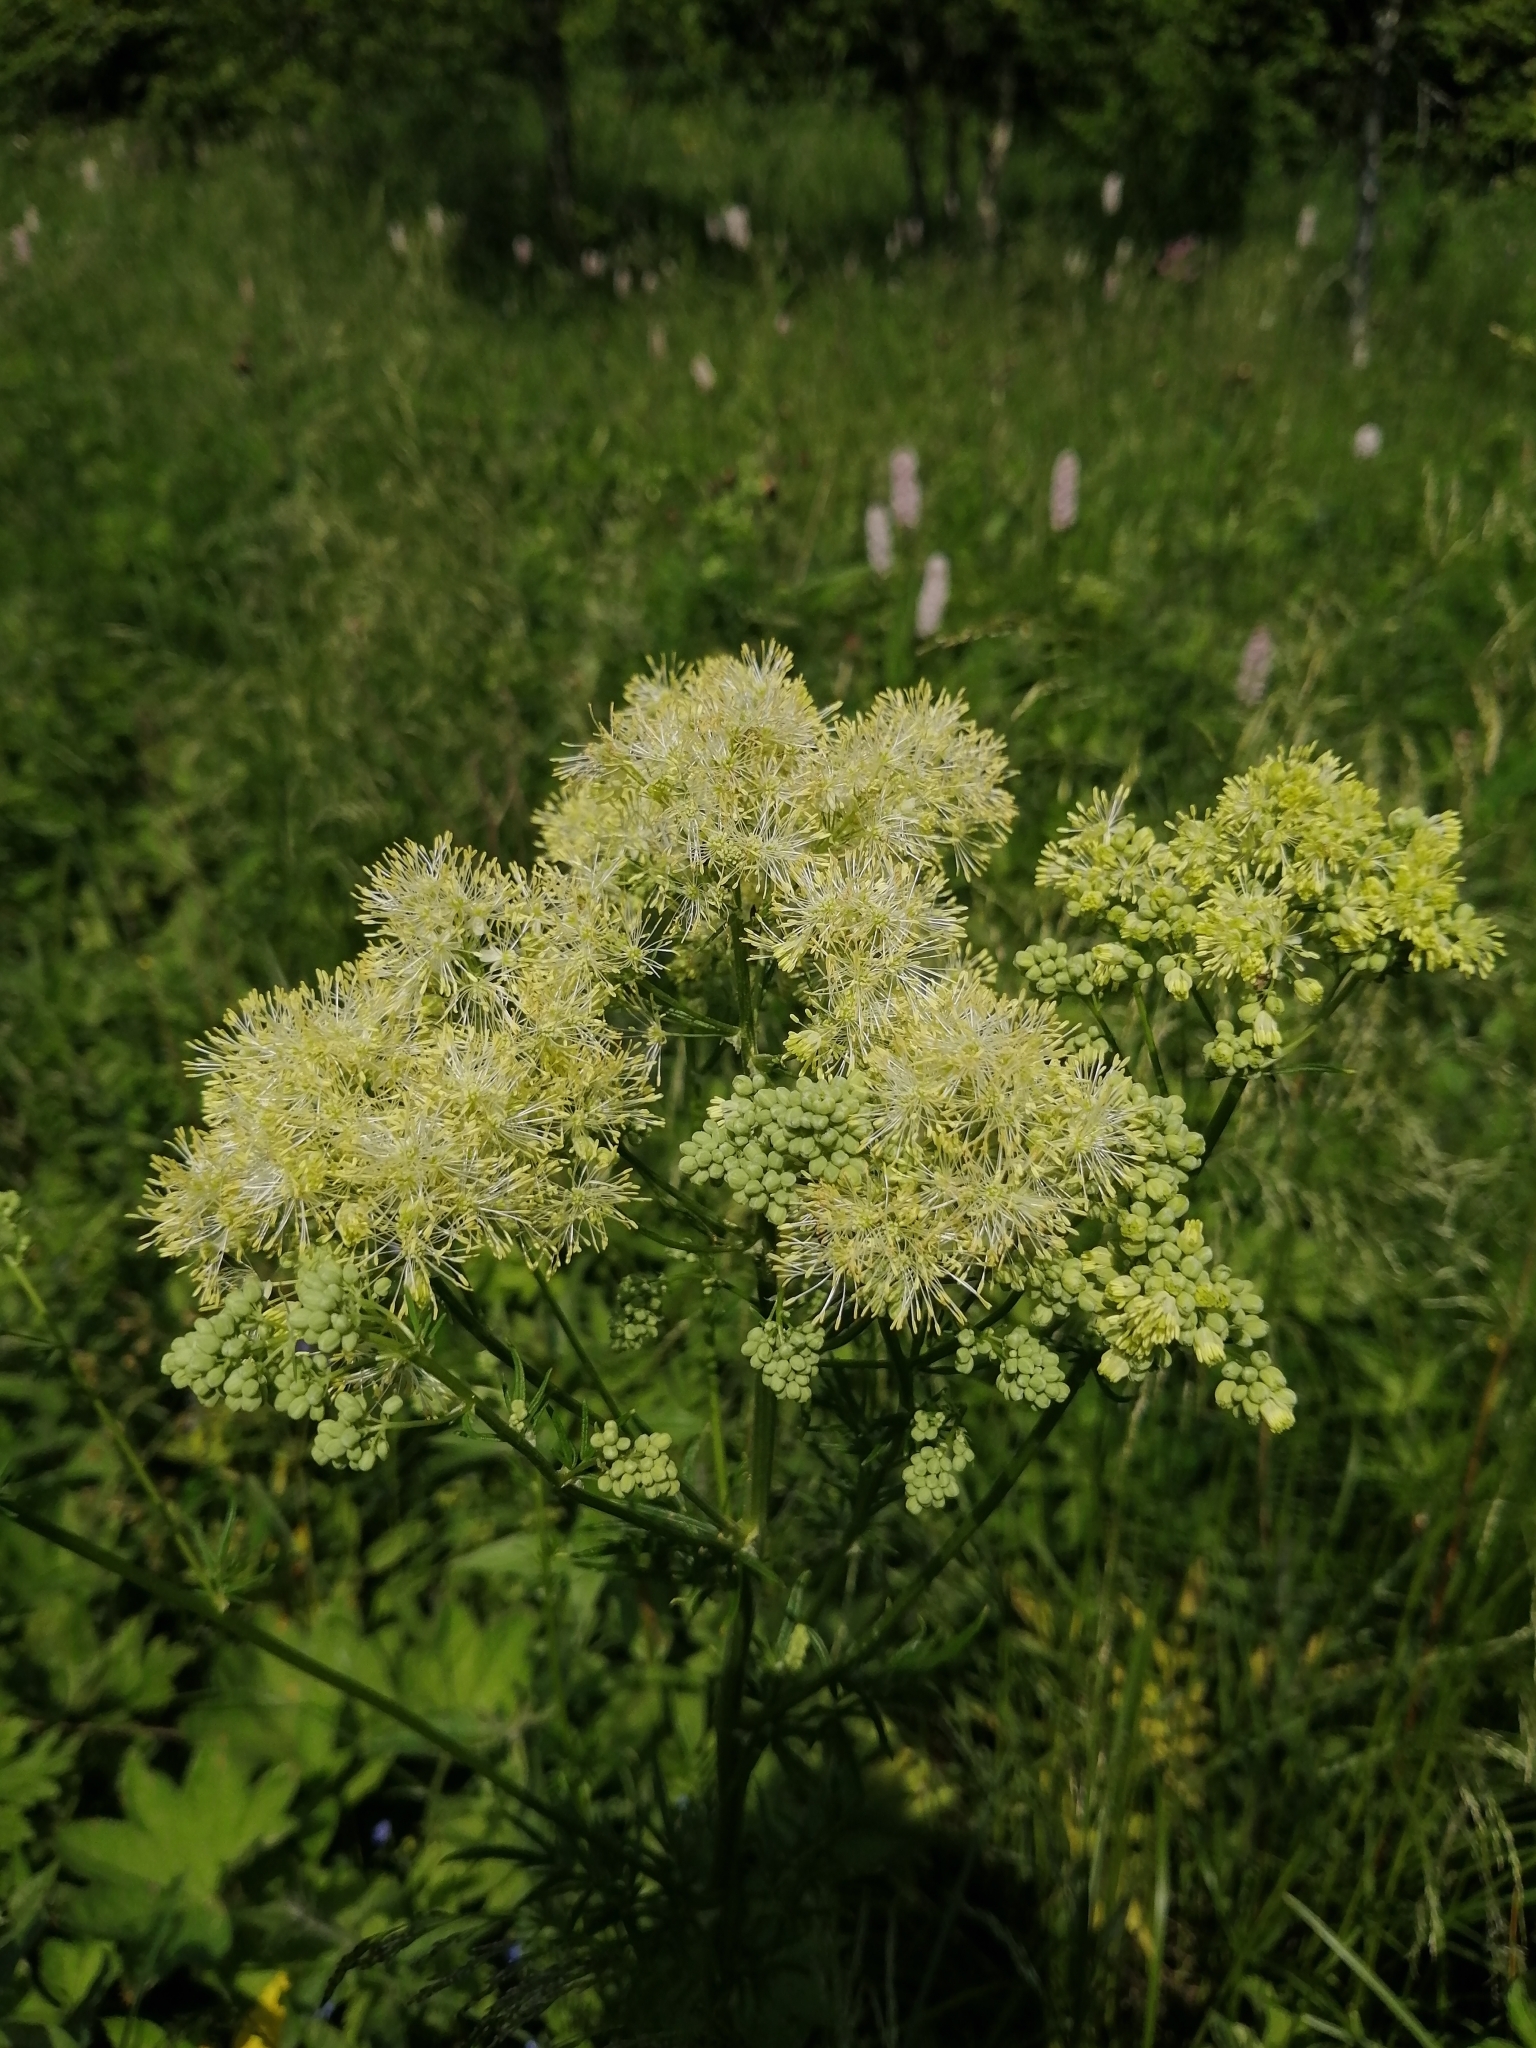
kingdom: Plantae
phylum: Tracheophyta
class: Magnoliopsida
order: Ranunculales
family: Ranunculaceae
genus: Thalictrum
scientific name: Thalictrum lucidum
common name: Shining meadow-rue
